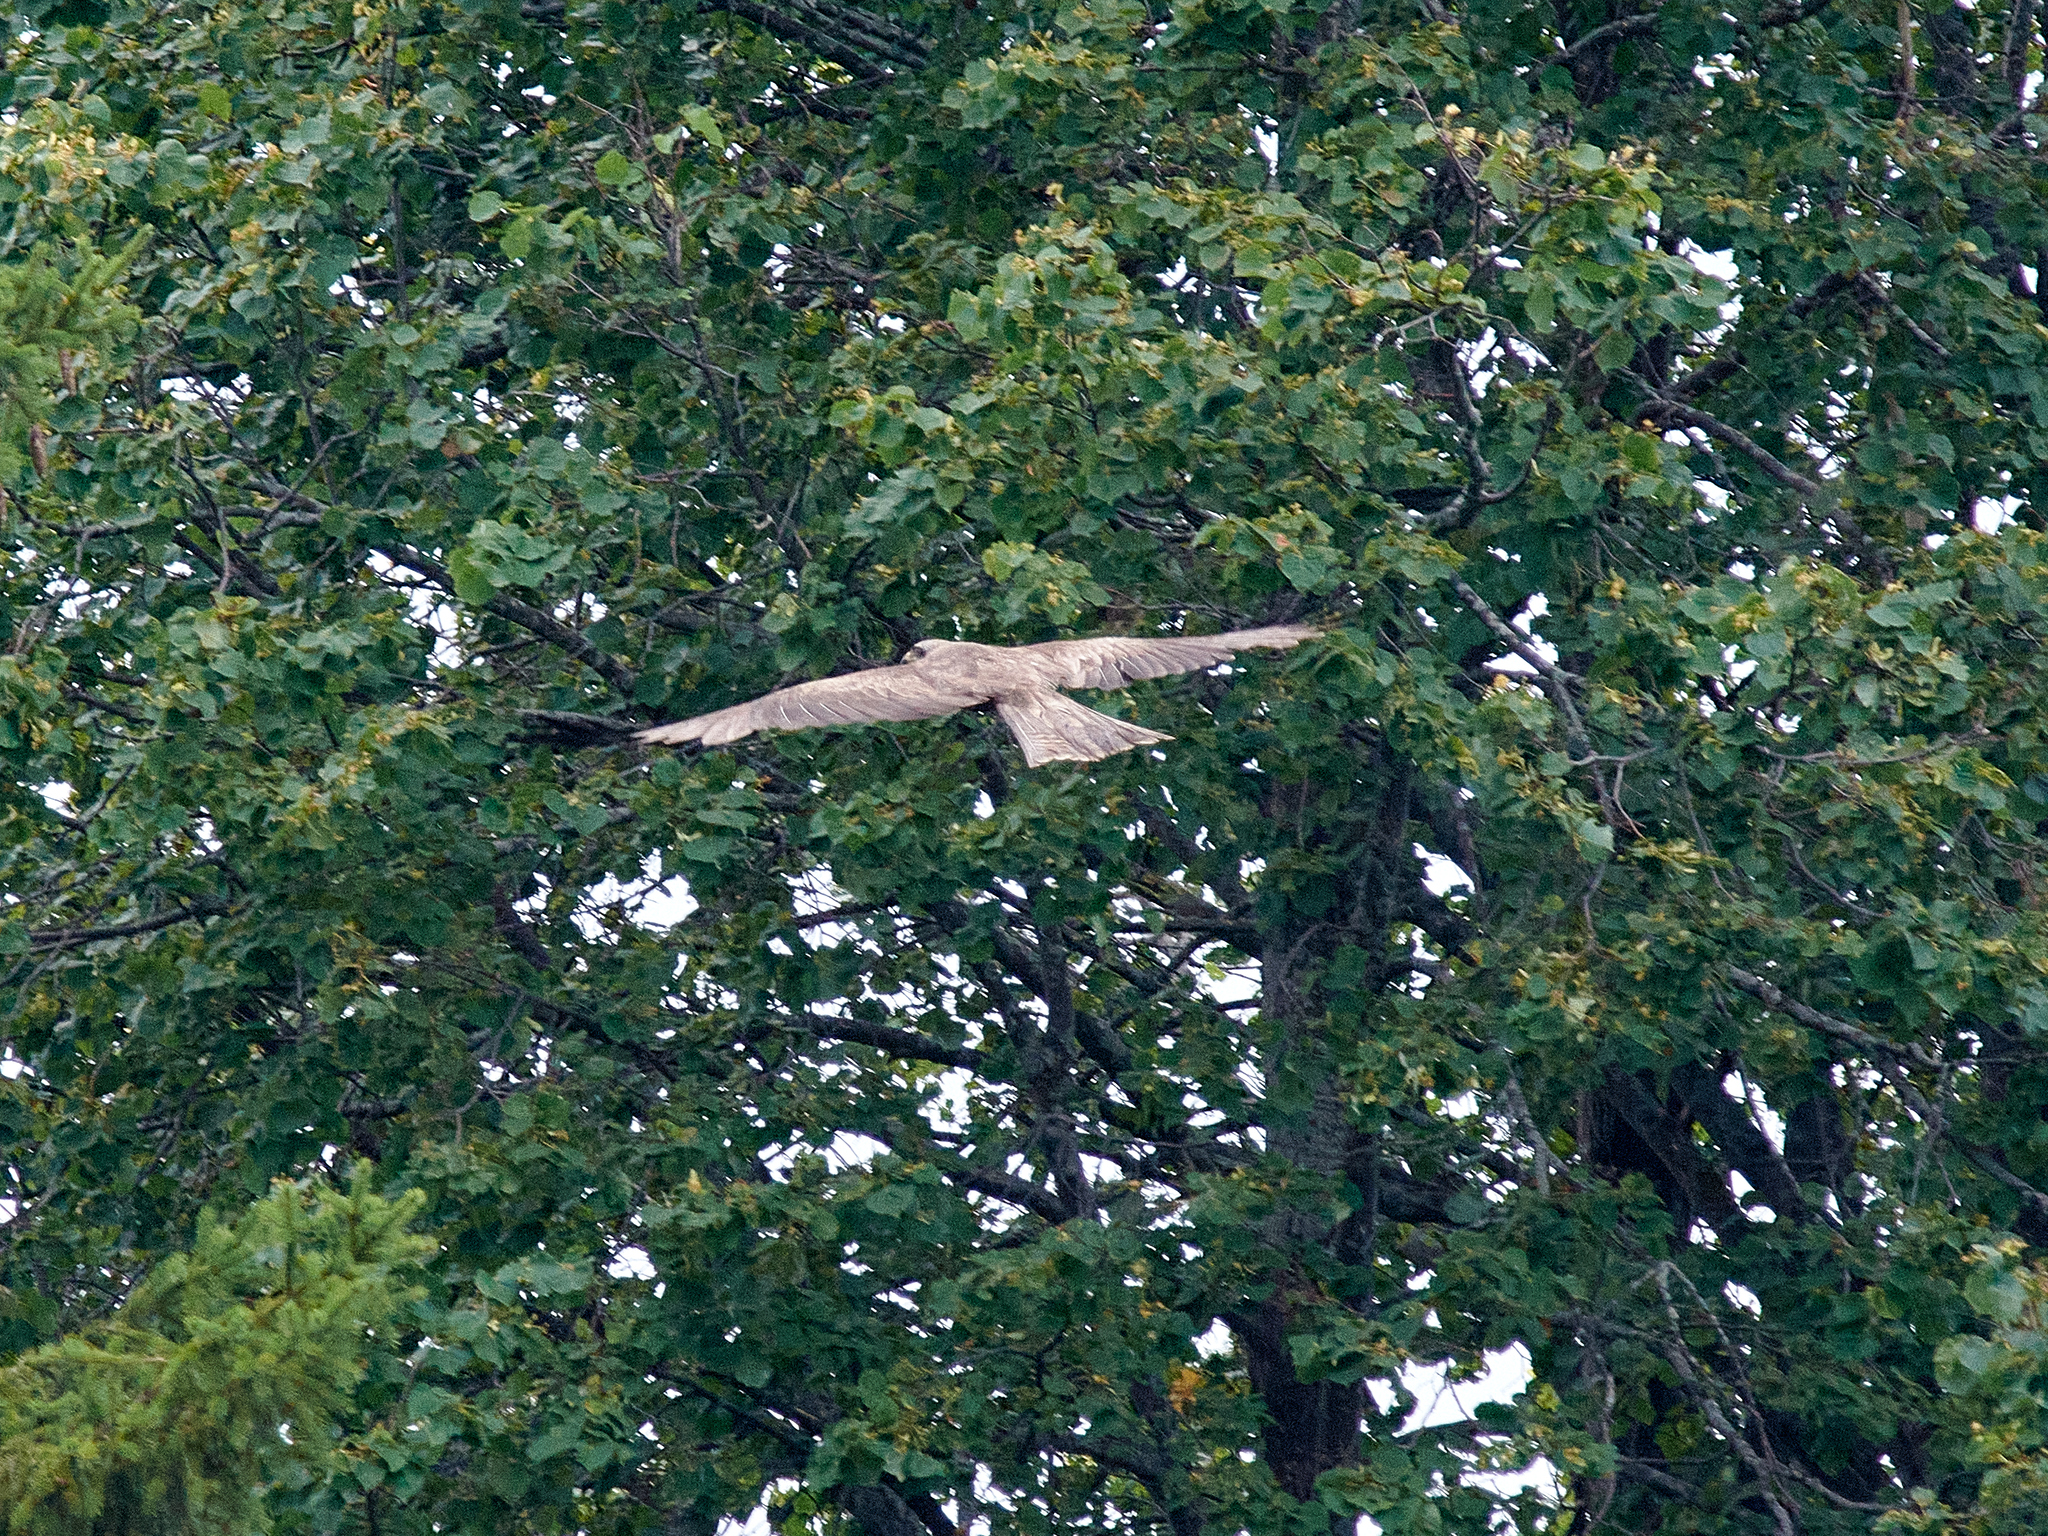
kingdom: Animalia
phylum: Chordata
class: Aves
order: Accipitriformes
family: Accipitridae
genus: Milvus
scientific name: Milvus migrans
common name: Black kite
